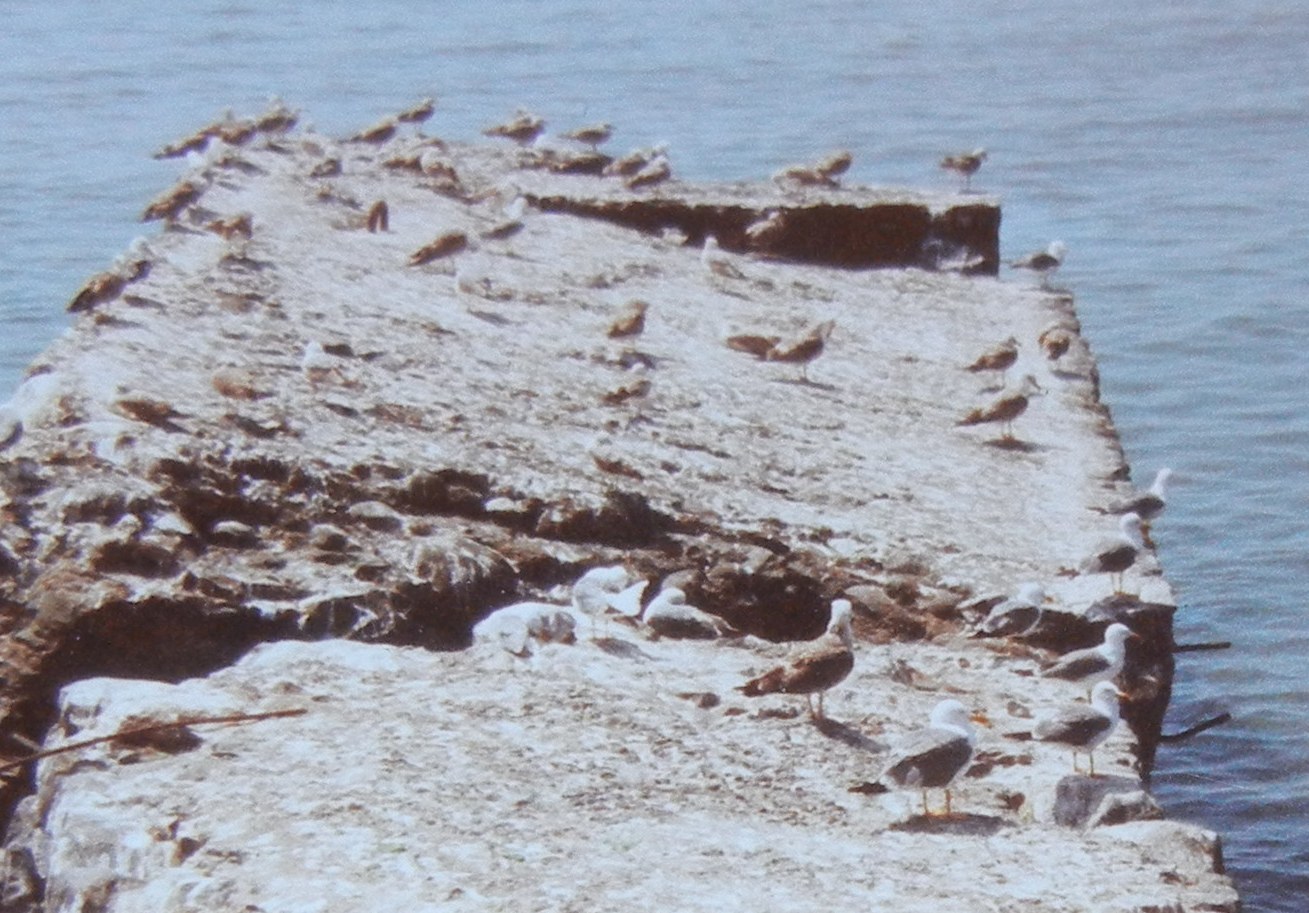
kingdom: Animalia
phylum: Chordata
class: Aves
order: Charadriiformes
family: Laridae
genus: Larus
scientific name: Larus michahellis
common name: Yellow-legged gull
